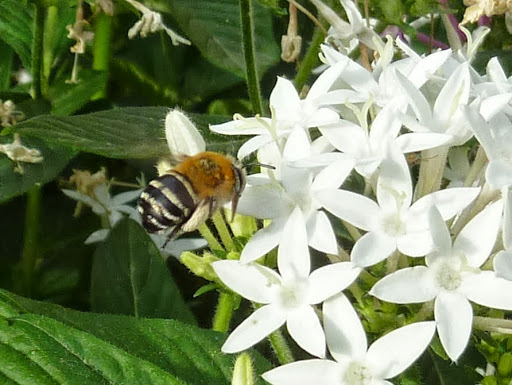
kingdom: Animalia
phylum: Arthropoda
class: Insecta
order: Hymenoptera
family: Apidae
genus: Amegilla
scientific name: Amegilla quadrifasciata
